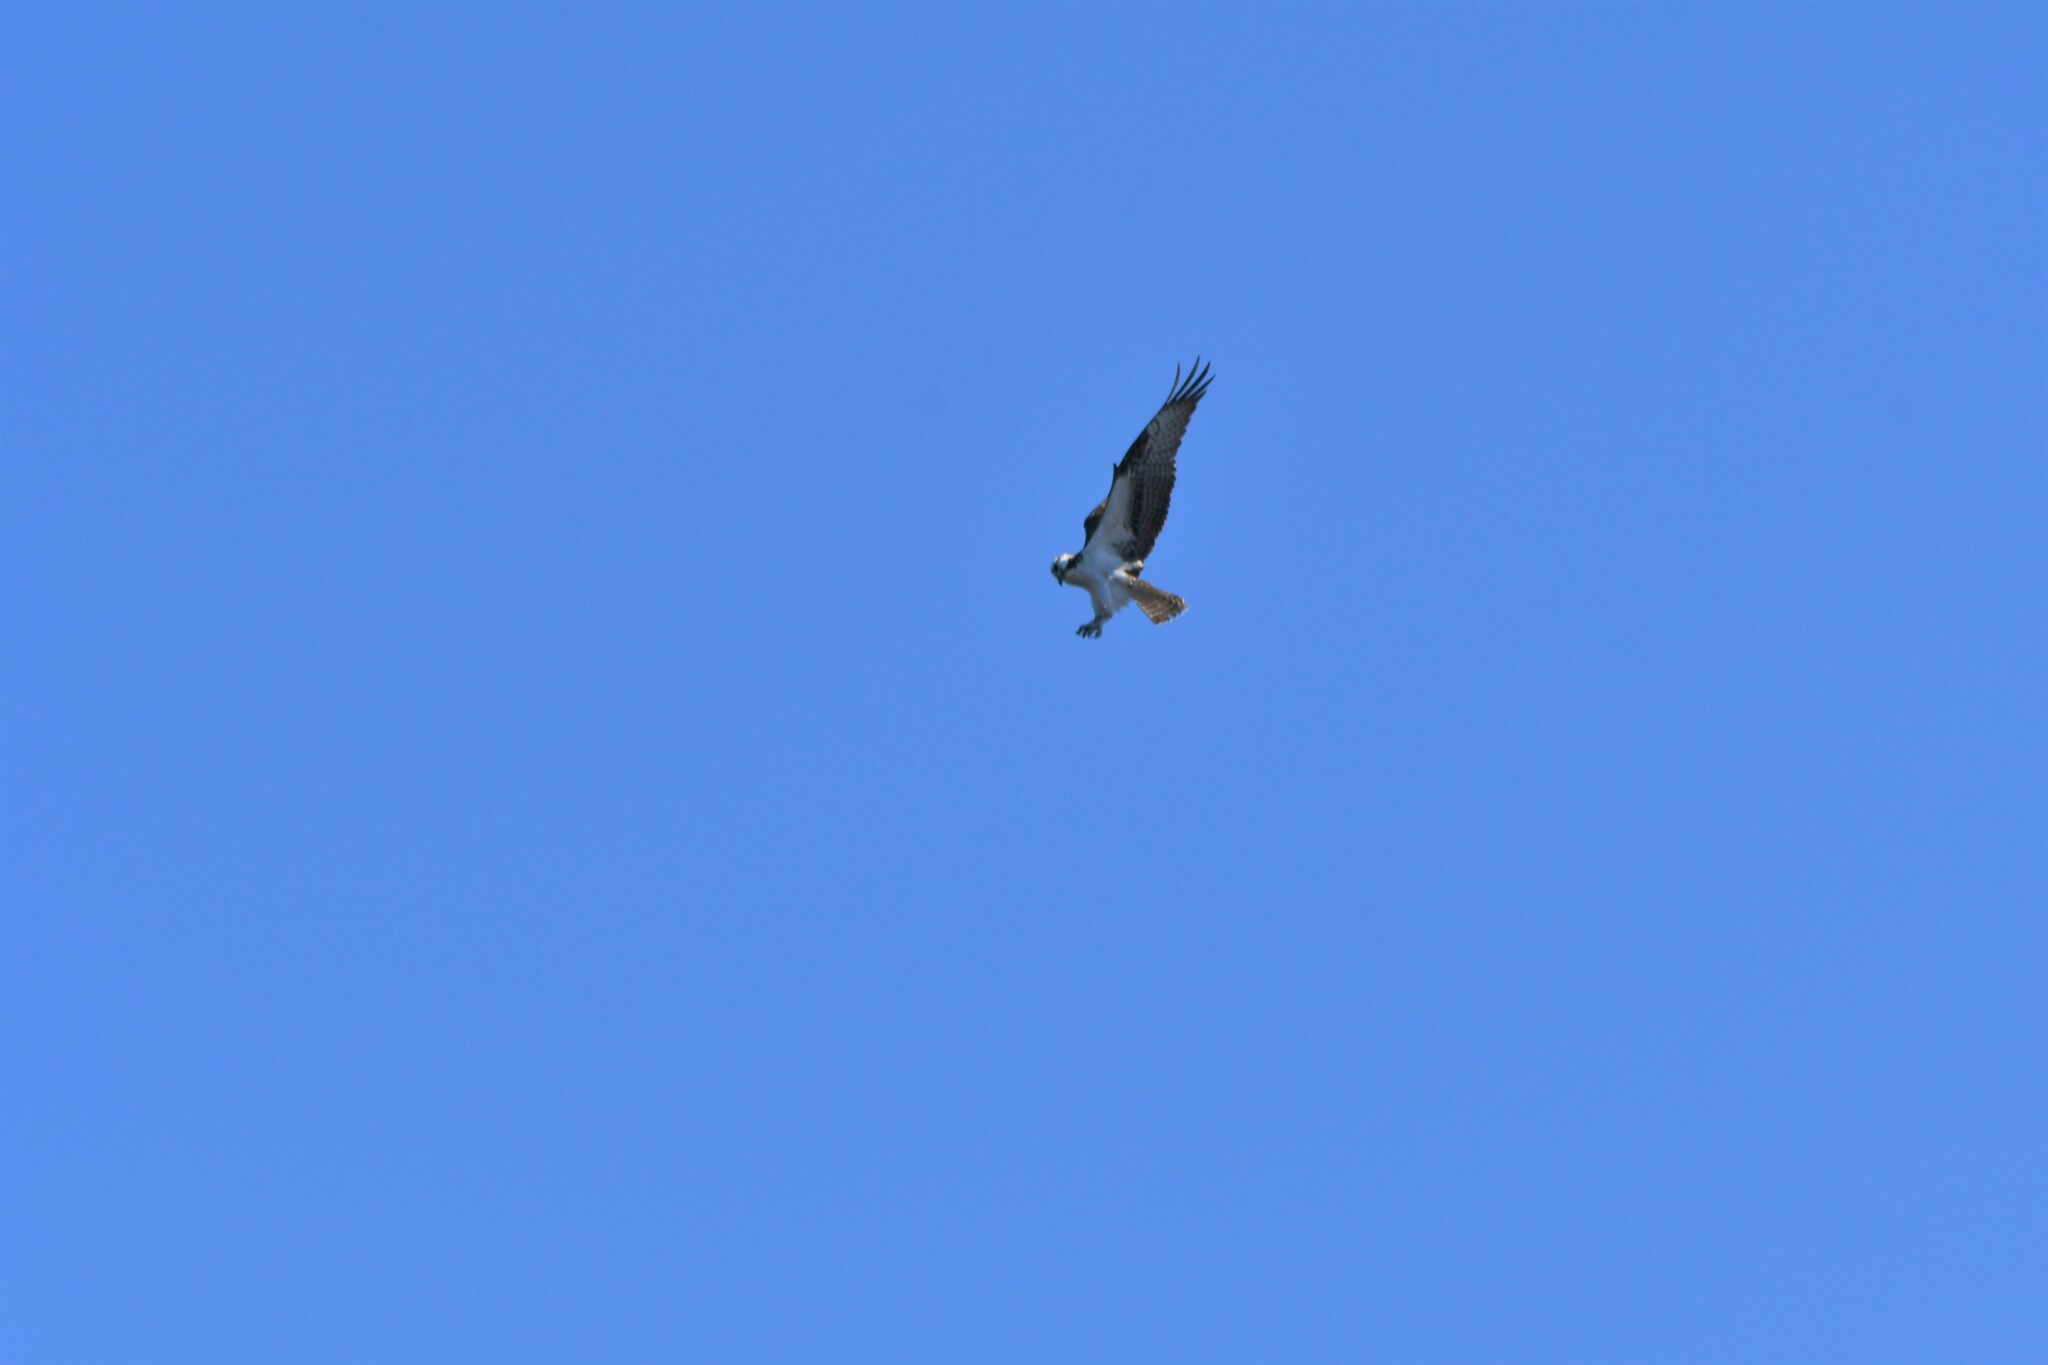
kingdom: Animalia
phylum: Chordata
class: Aves
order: Accipitriformes
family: Pandionidae
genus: Pandion
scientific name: Pandion haliaetus
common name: Osprey
